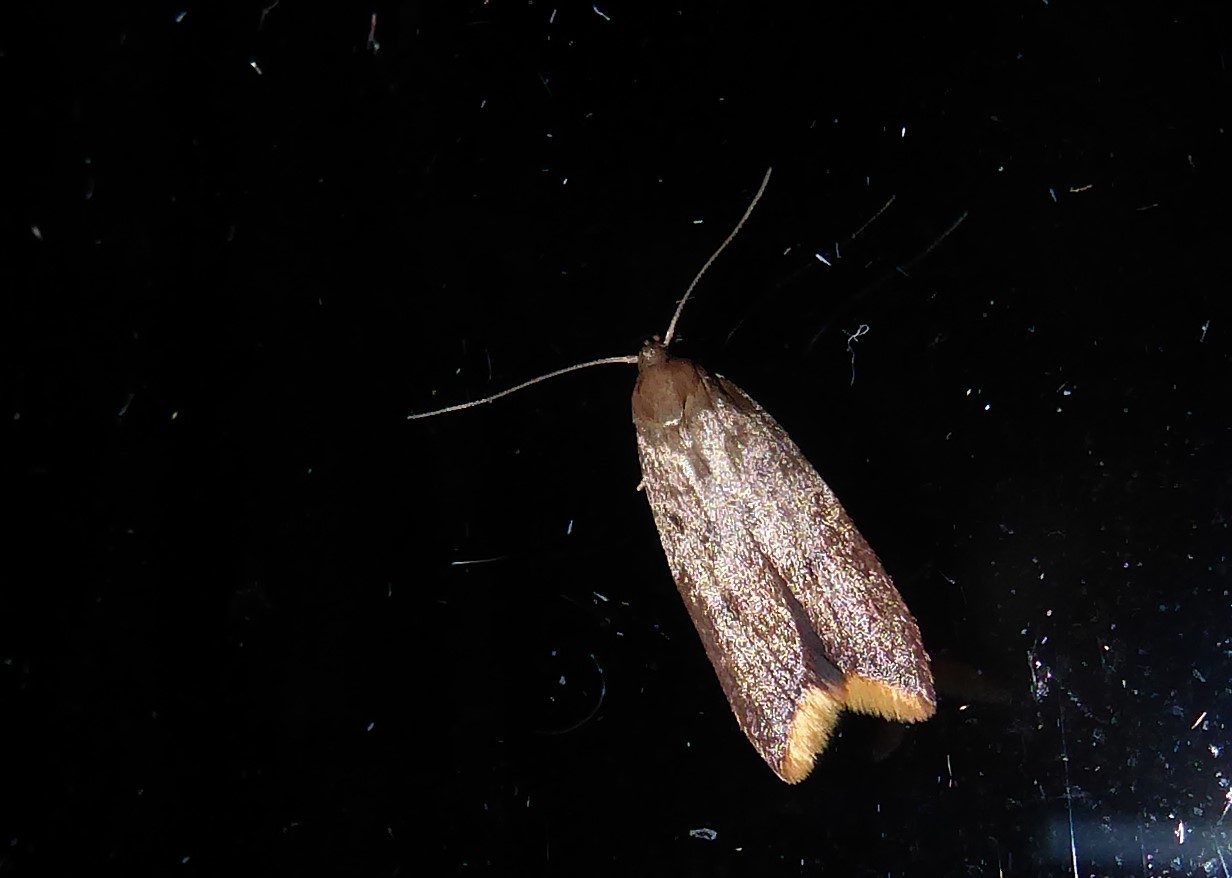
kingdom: Animalia
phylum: Arthropoda
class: Insecta
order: Lepidoptera
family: Oecophoridae
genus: Tachystola
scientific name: Tachystola acroxantha
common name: Ruddy streak
